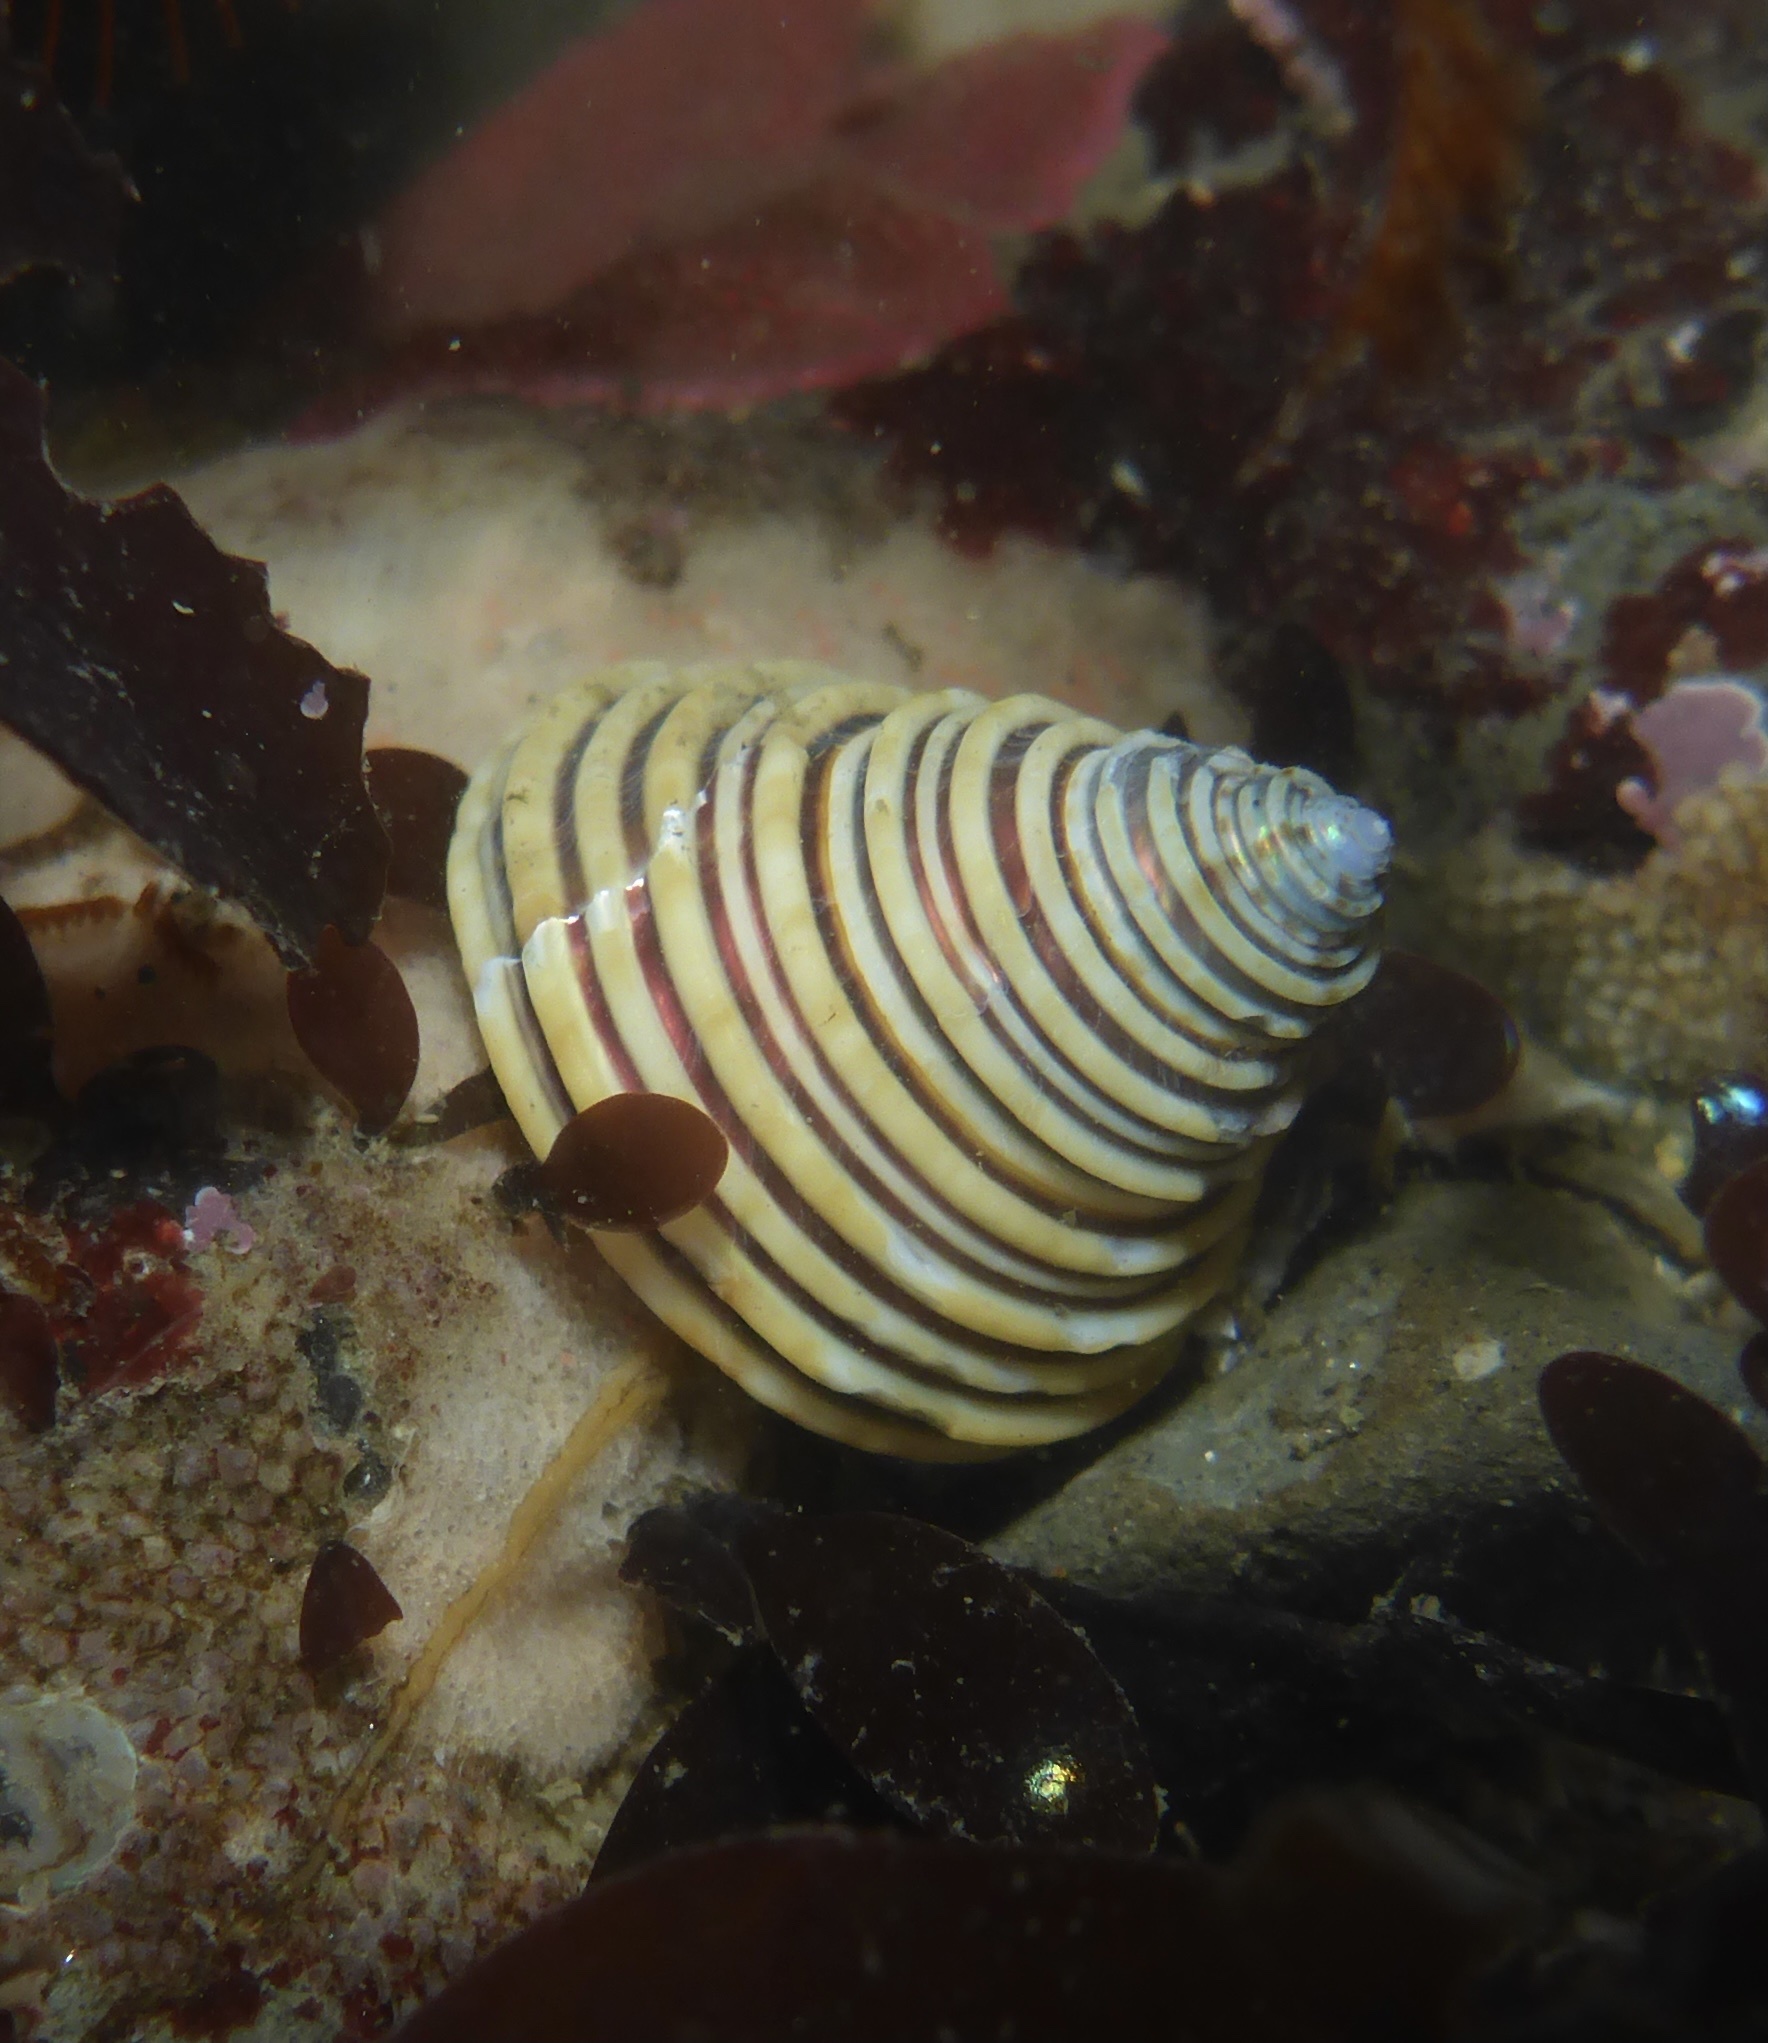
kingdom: Animalia
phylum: Mollusca
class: Gastropoda
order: Trochida
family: Calliostomatidae
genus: Calliostoma
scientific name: Calliostoma canaliculatum
